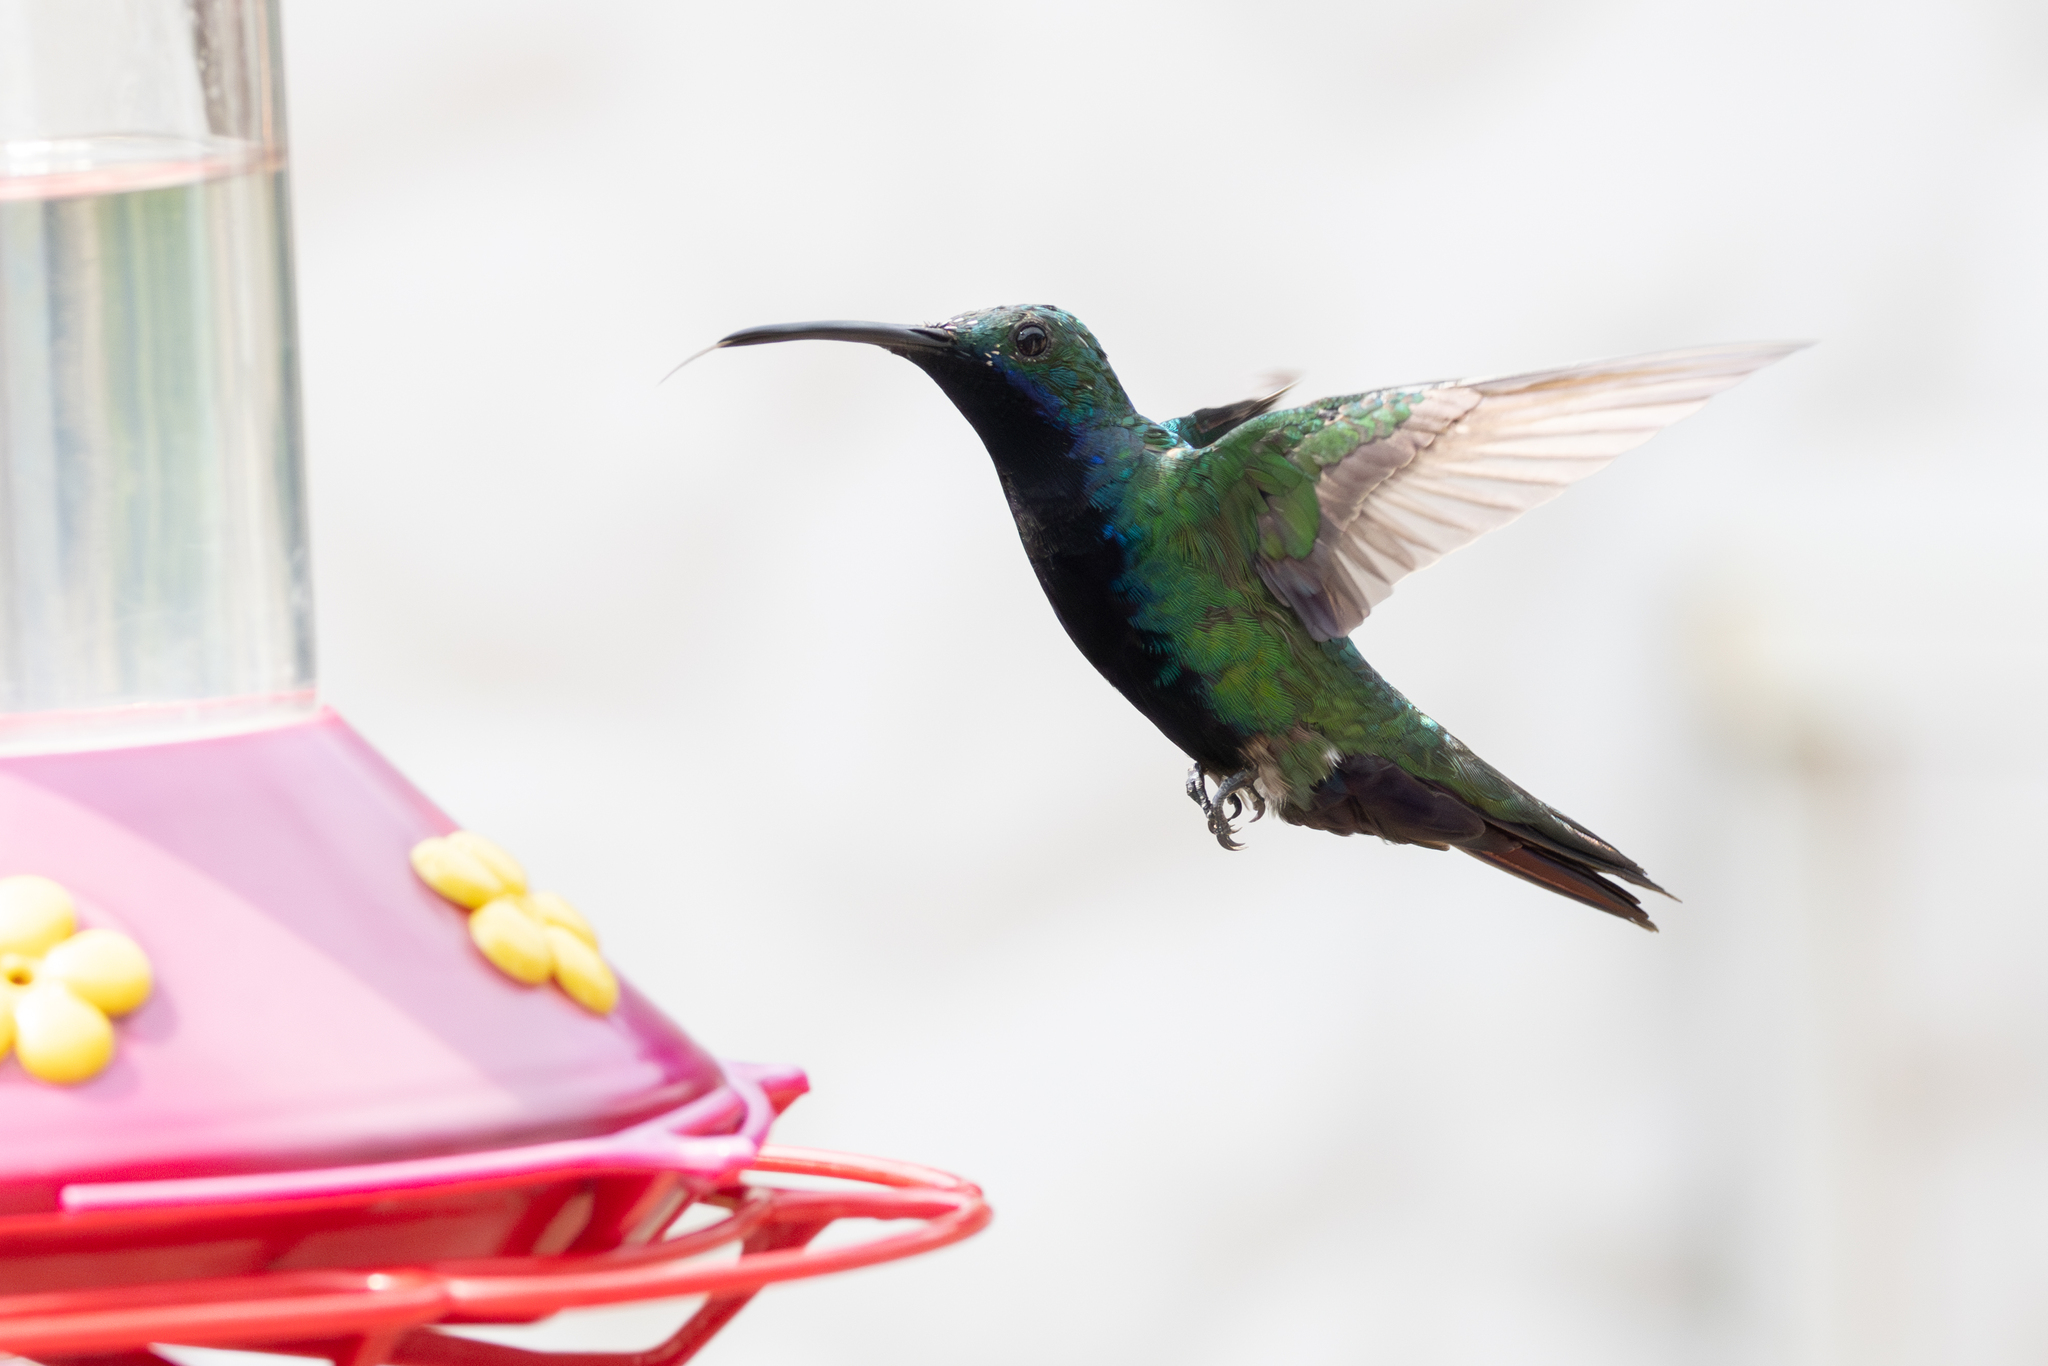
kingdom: Animalia
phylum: Chordata
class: Aves
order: Apodiformes
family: Trochilidae
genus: Anthracothorax
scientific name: Anthracothorax nigricollis
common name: Black-throated mango
